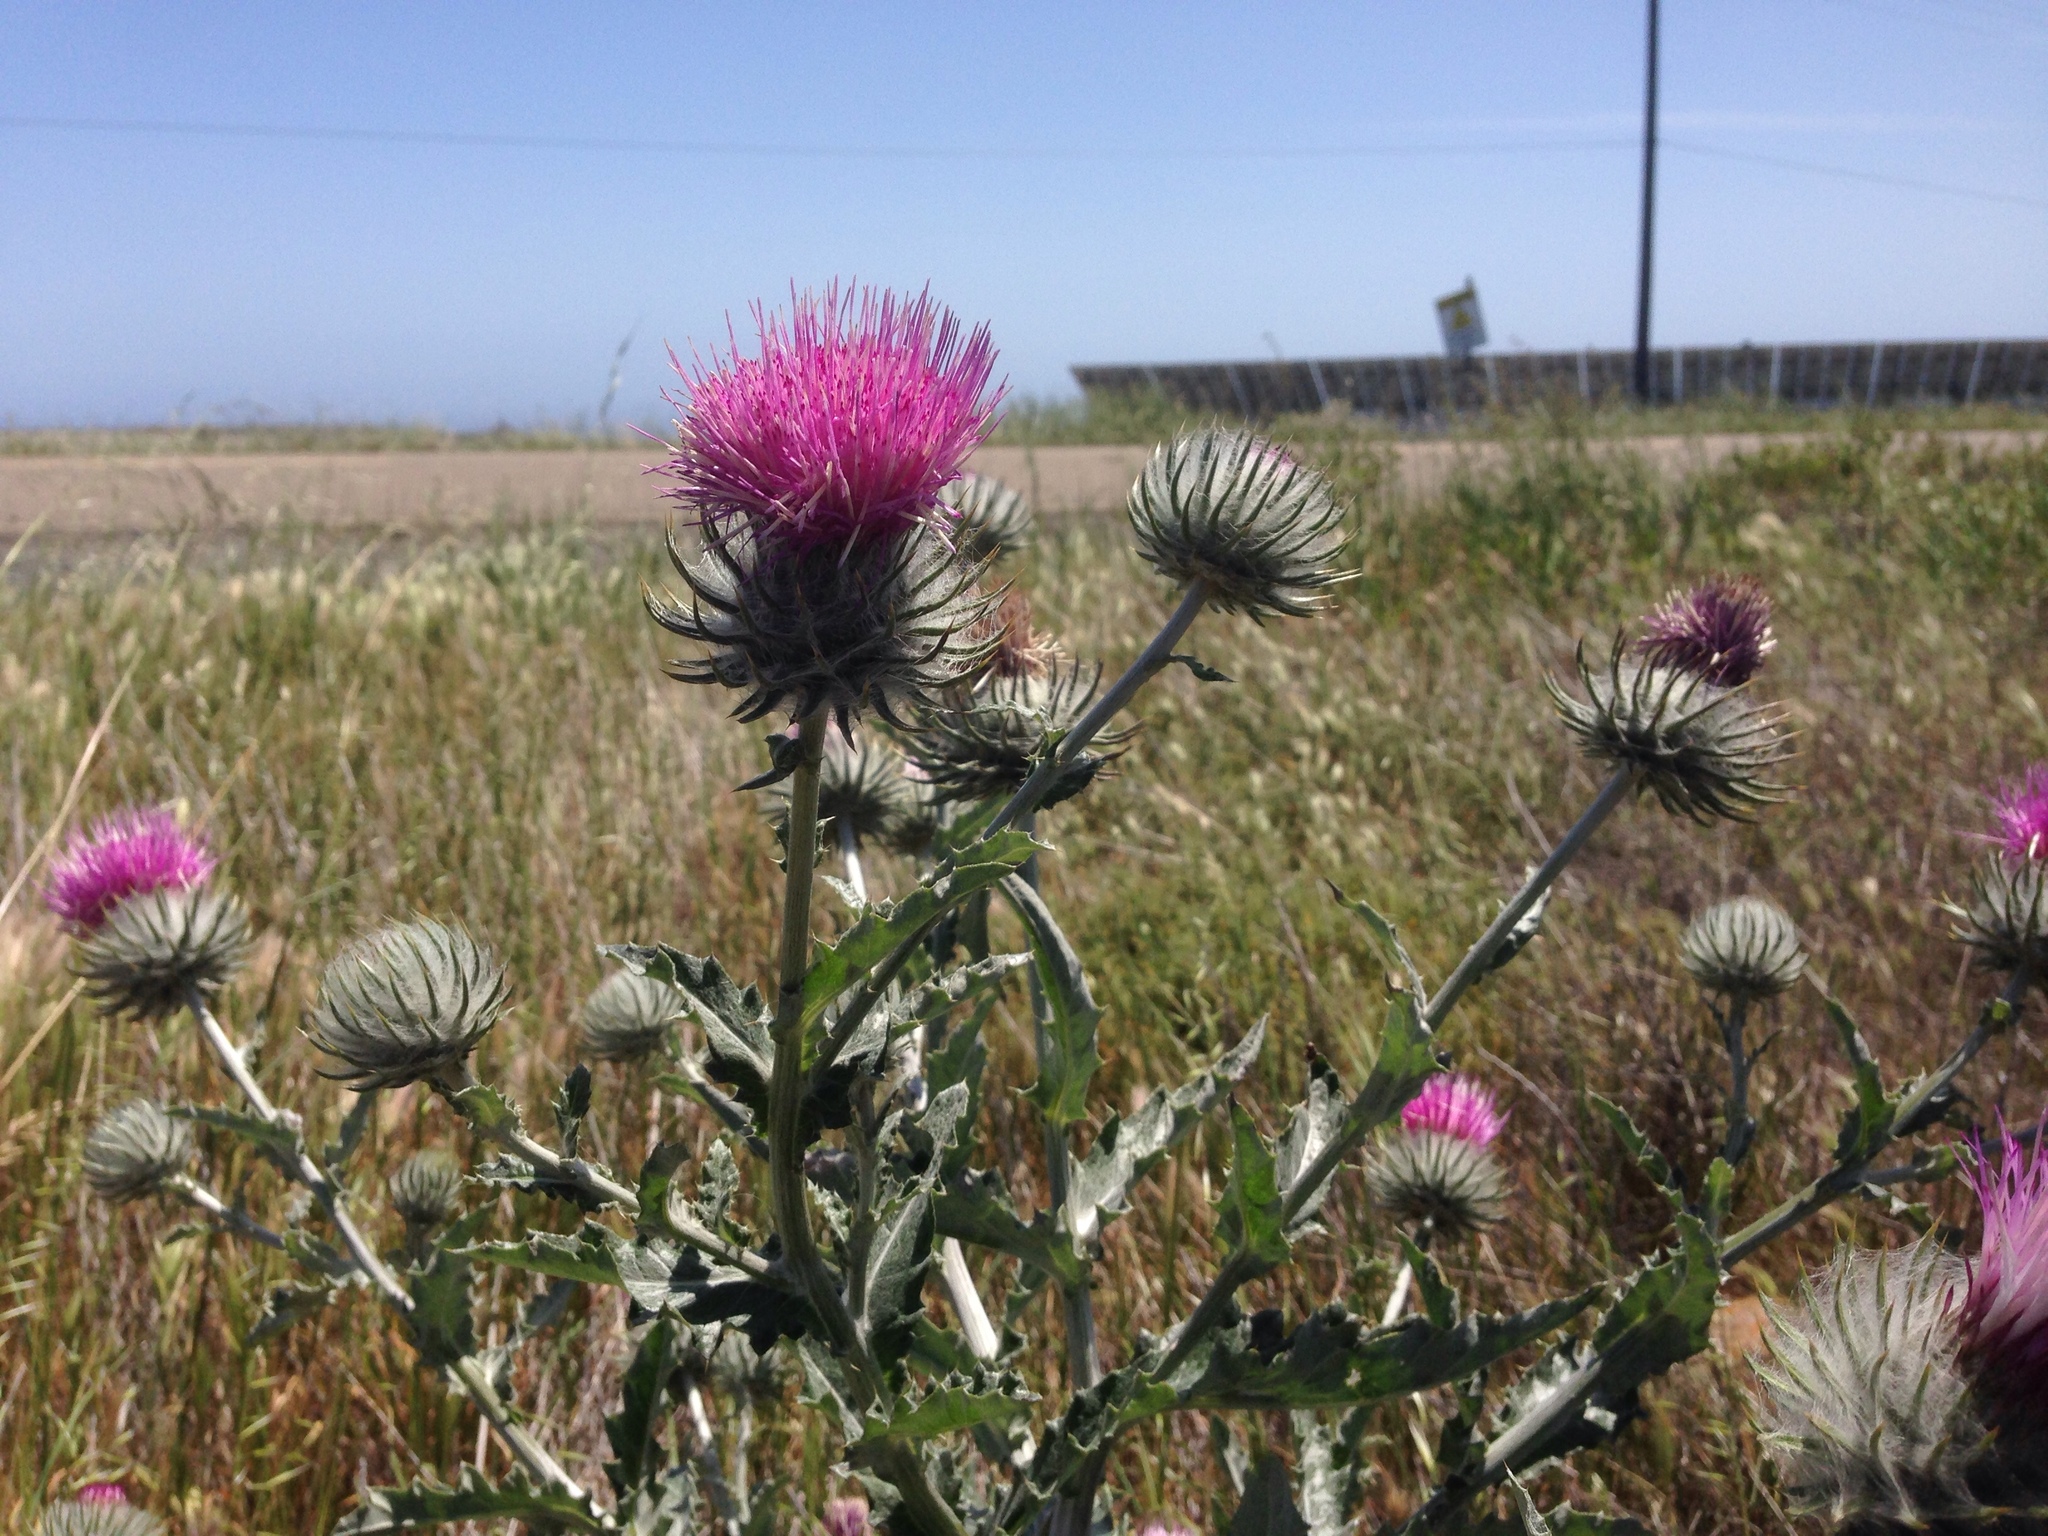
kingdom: Plantae
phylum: Tracheophyta
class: Magnoliopsida
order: Asterales
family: Asteraceae
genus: Cirsium
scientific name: Cirsium occidentale
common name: Western thistle
